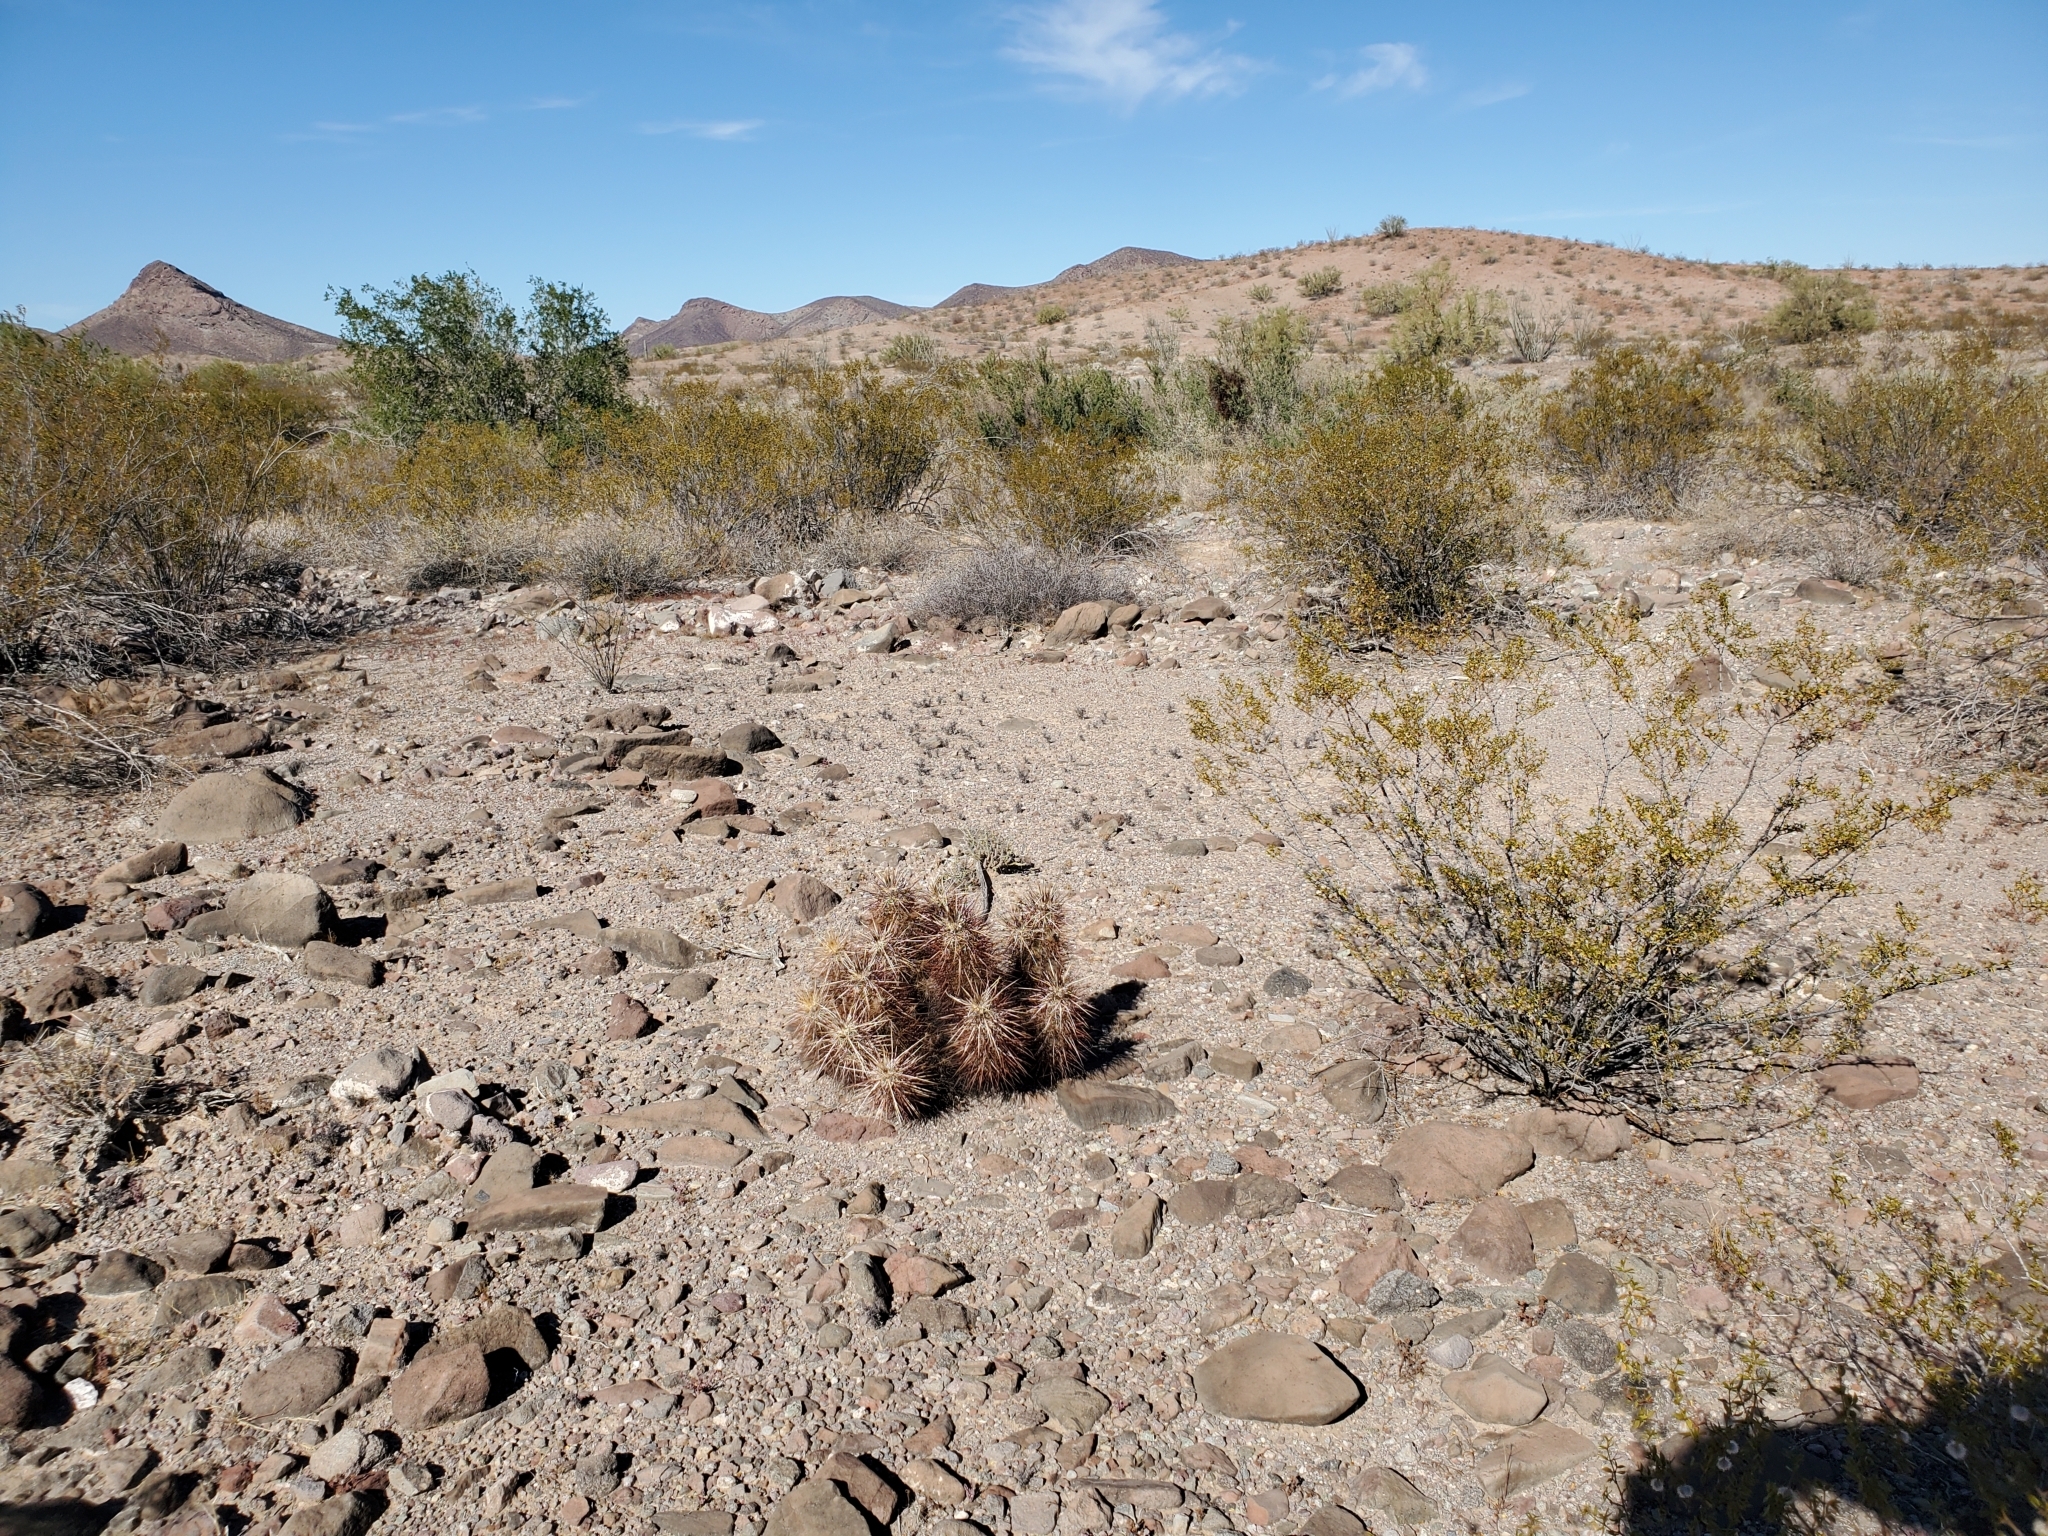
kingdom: Plantae
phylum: Tracheophyta
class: Magnoliopsida
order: Caryophyllales
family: Cactaceae
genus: Echinocereus
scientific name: Echinocereus engelmannii
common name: Engelmann's hedgehog cactus
